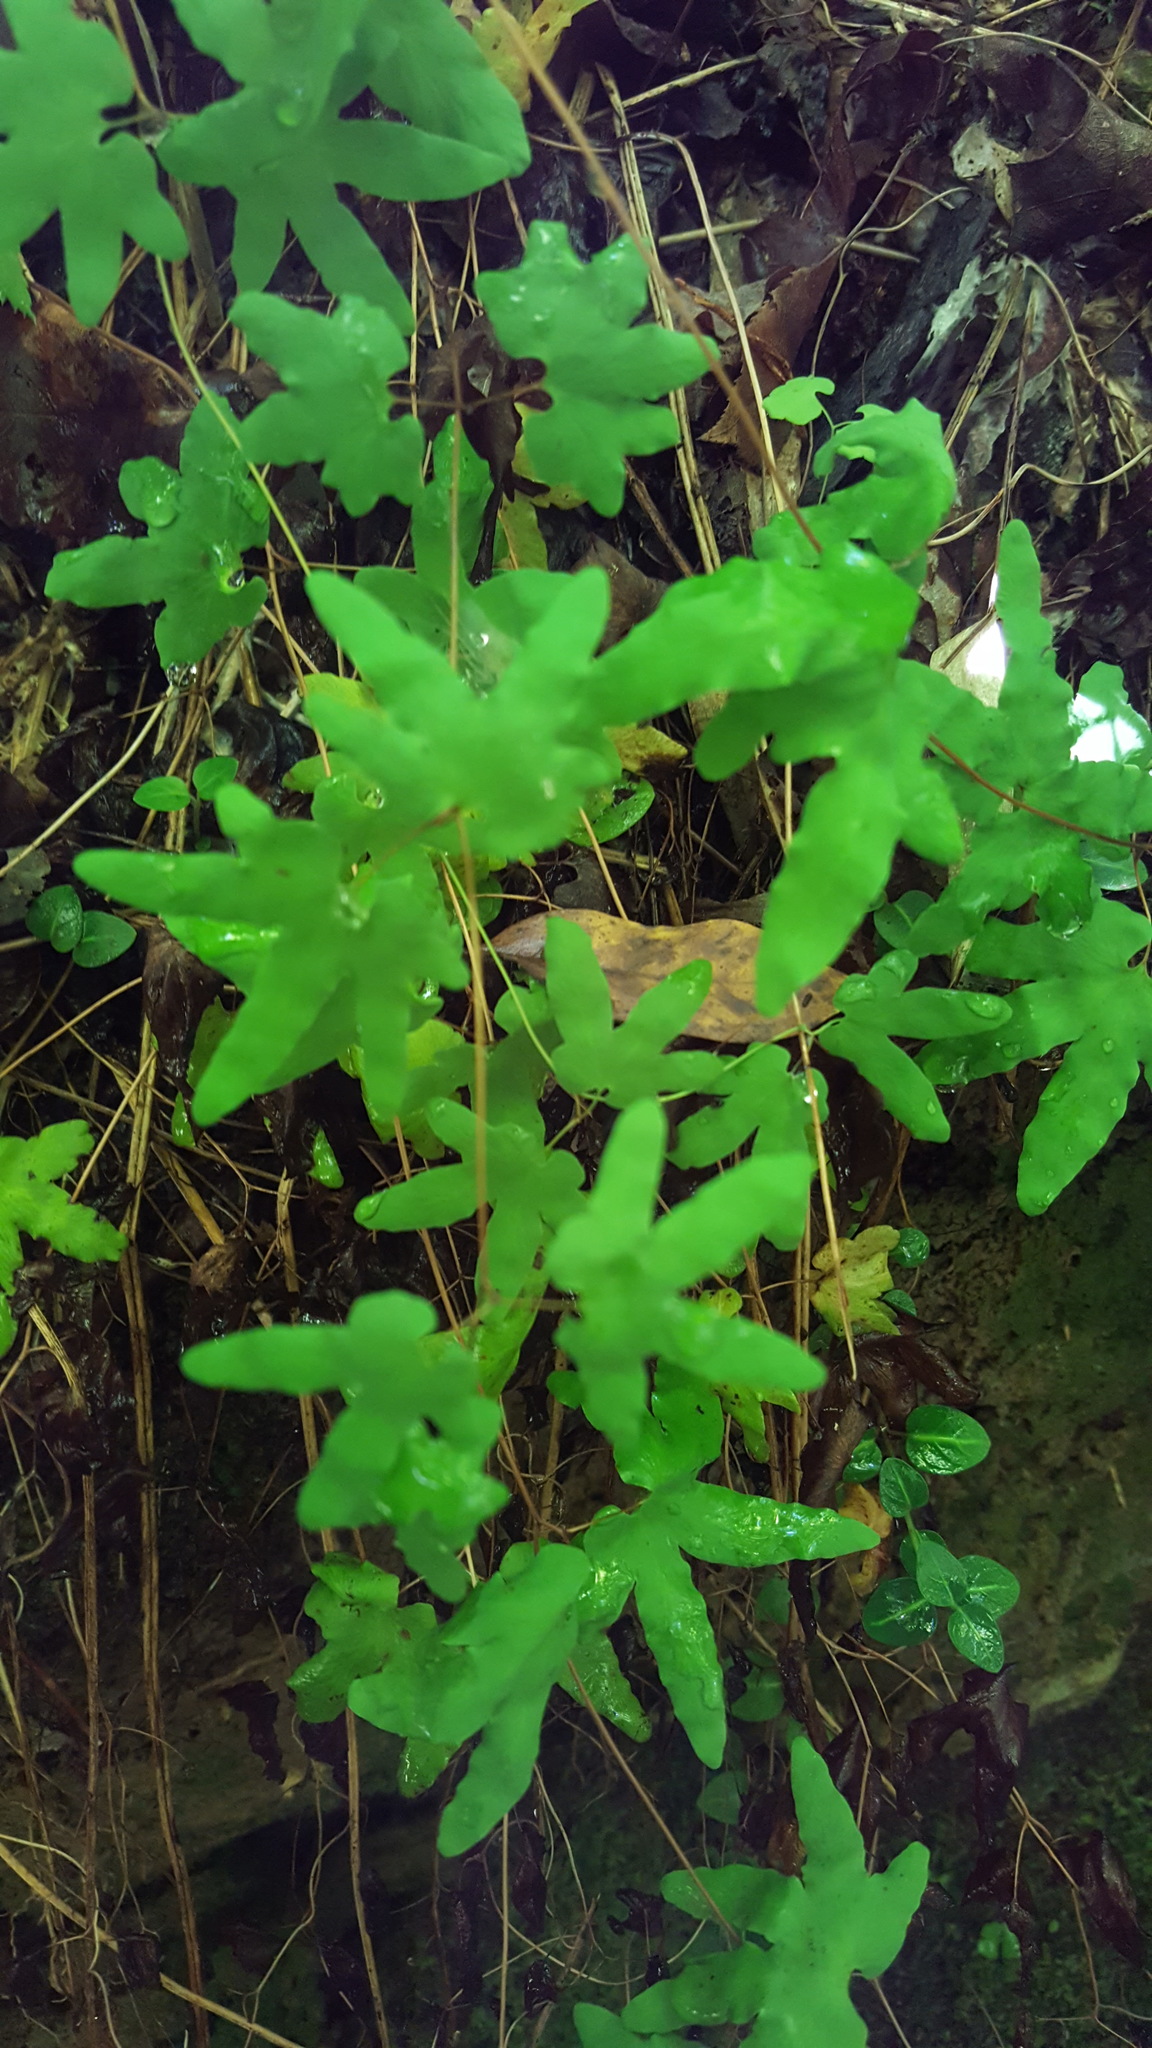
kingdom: Plantae
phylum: Tracheophyta
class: Polypodiopsida
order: Schizaeales
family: Lygodiaceae
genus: Lygodium
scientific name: Lygodium palmatum
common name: American climbing fern
